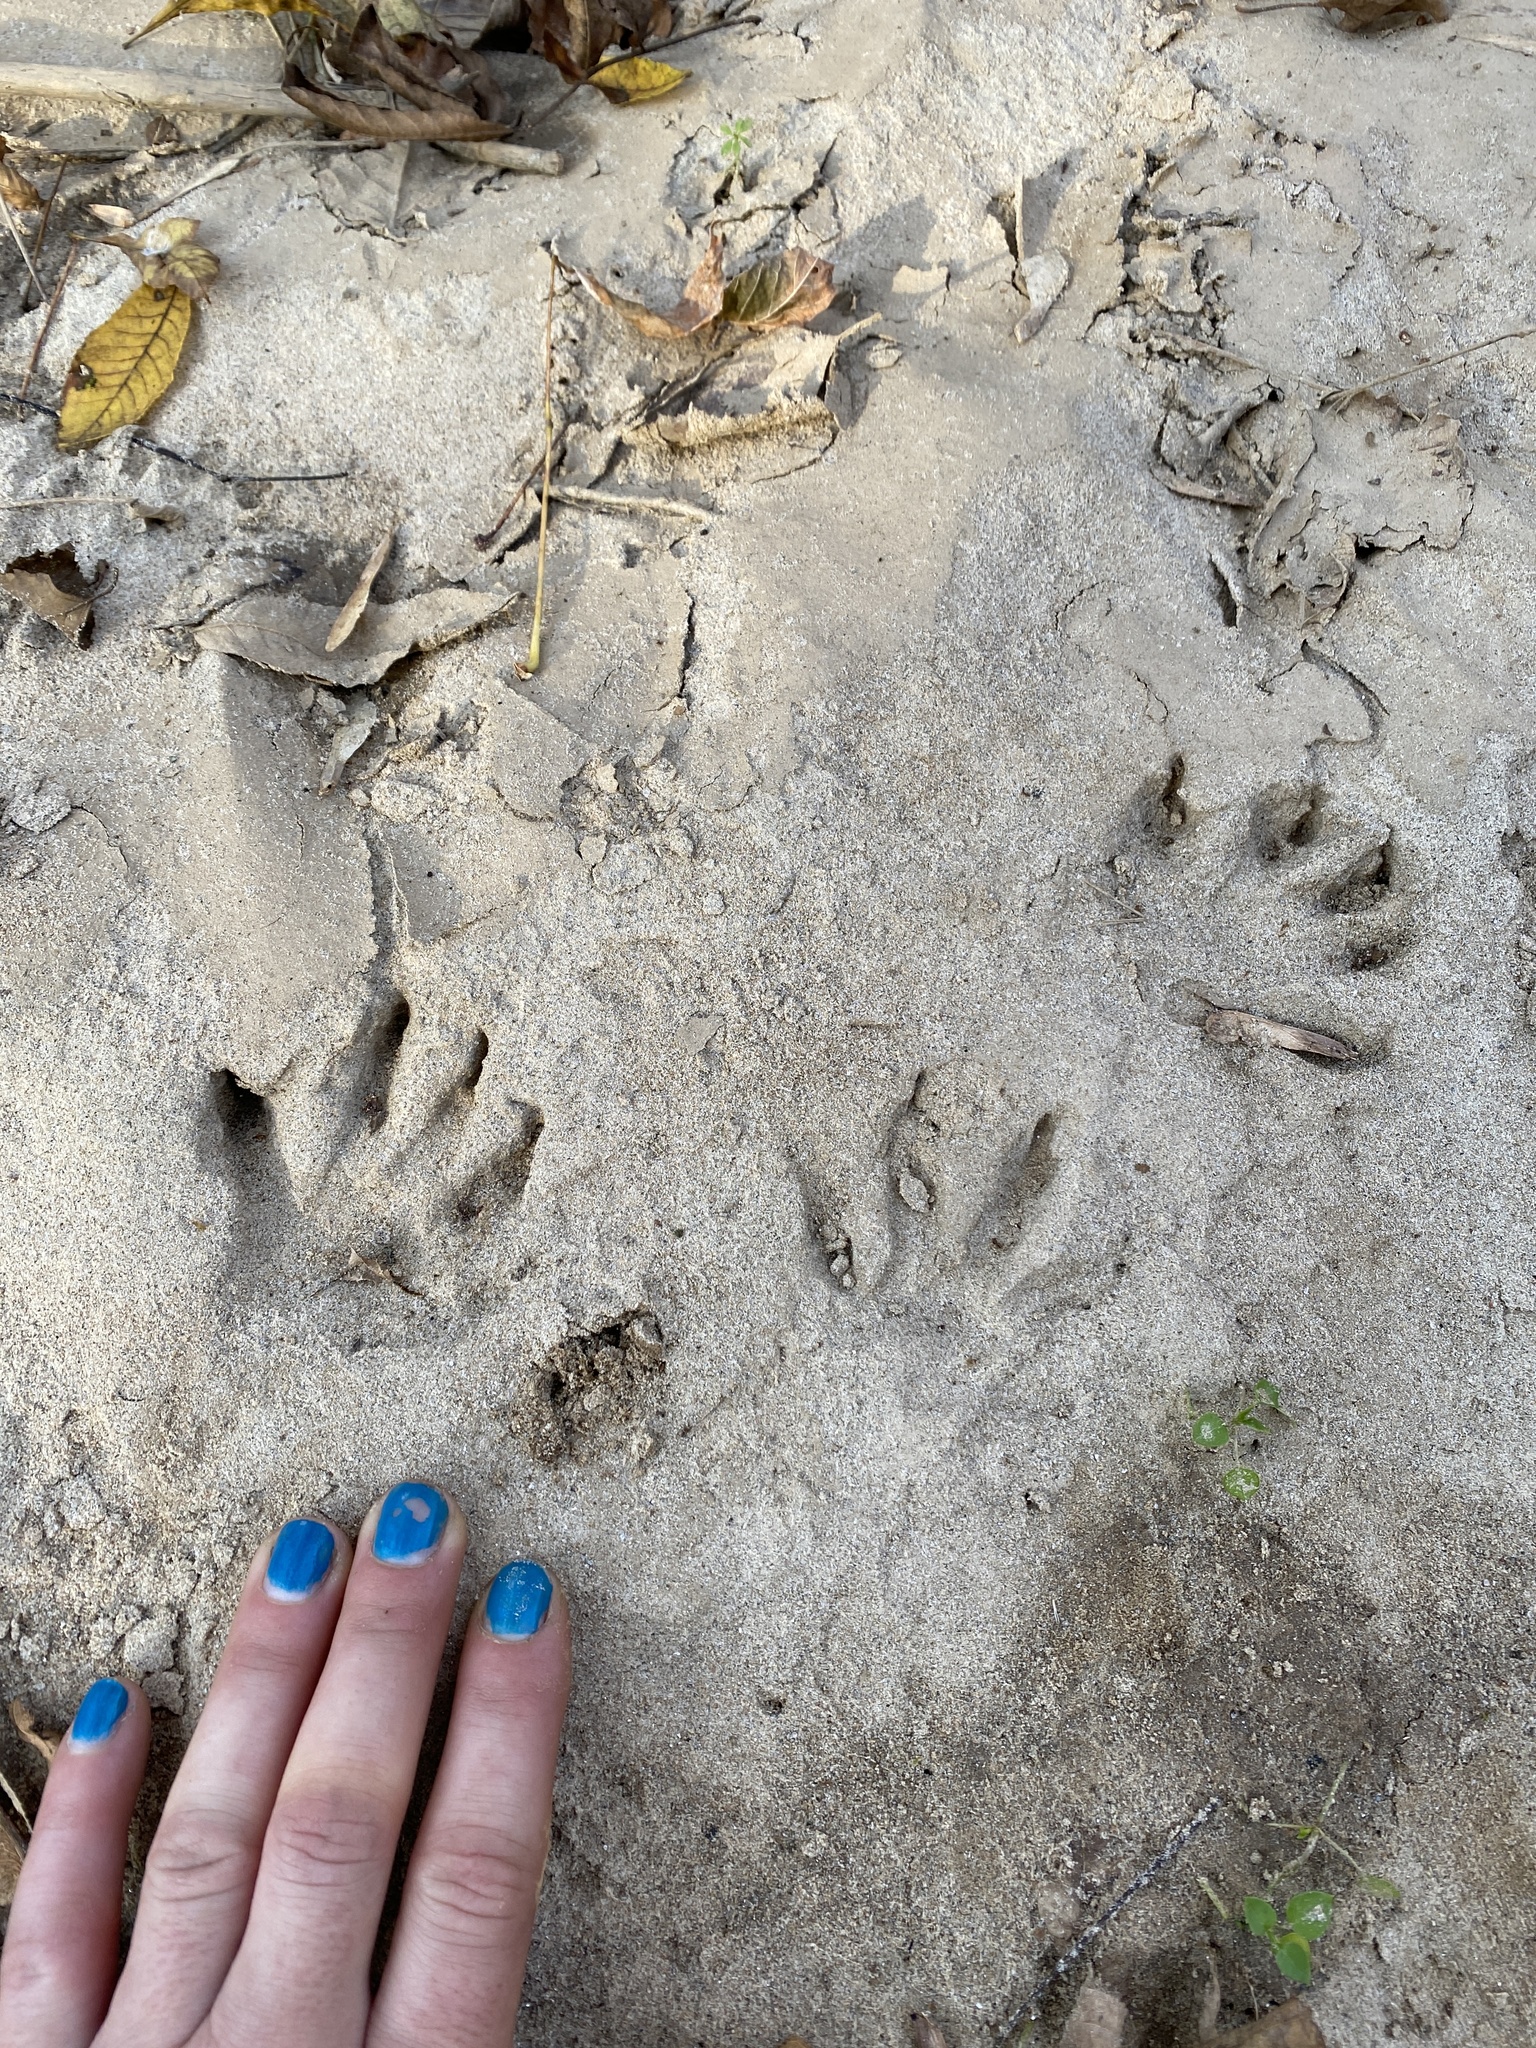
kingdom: Animalia
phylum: Chordata
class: Mammalia
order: Carnivora
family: Procyonidae
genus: Procyon
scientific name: Procyon lotor
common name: Raccoon
